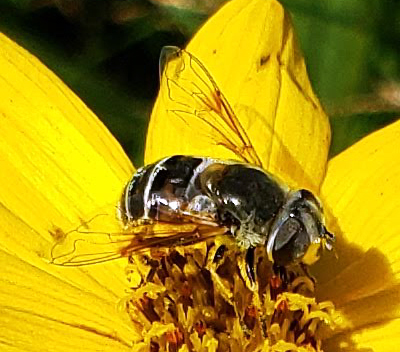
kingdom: Animalia
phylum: Arthropoda
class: Insecta
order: Diptera
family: Syrphidae
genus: Eristalis
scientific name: Eristalis stipator
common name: Yellow-shouldered drone fly
